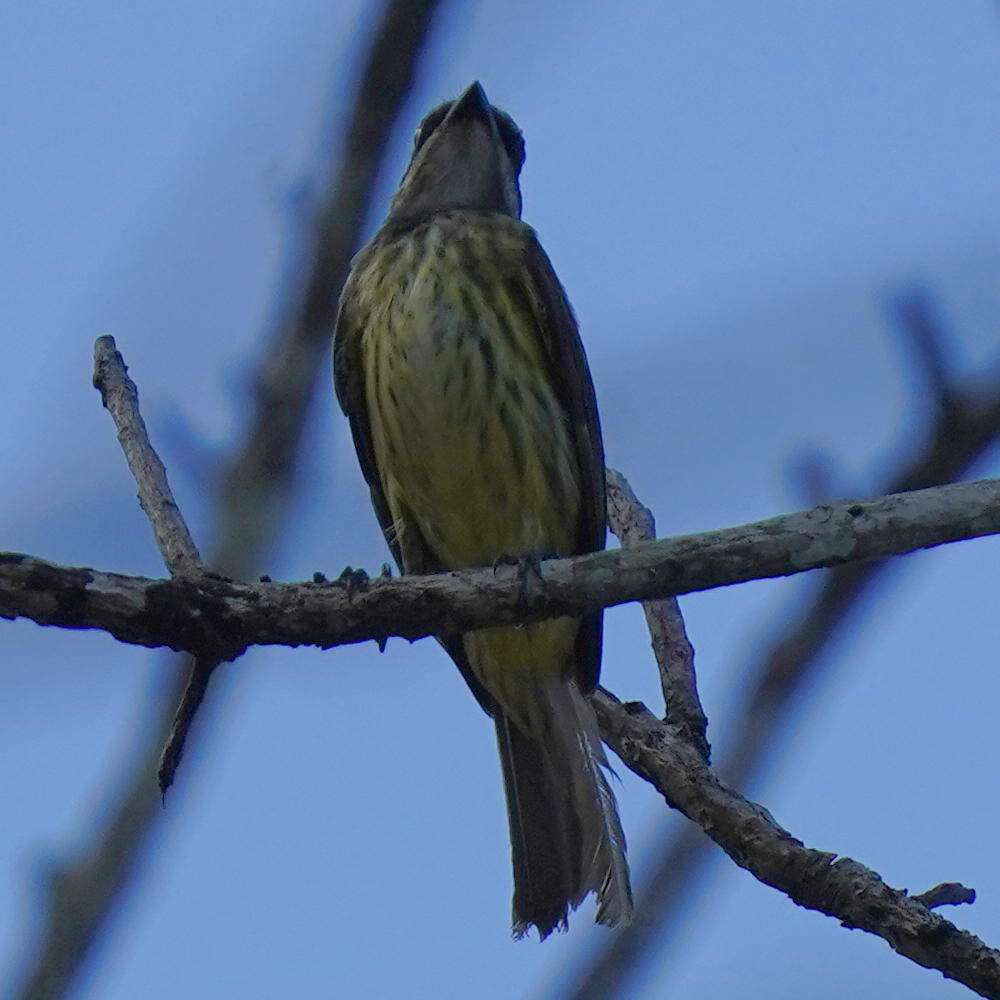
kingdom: Animalia
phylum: Chordata
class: Aves
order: Passeriformes
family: Tyrannidae
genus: Legatus
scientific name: Legatus leucophaius
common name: Piratic flycatcher
